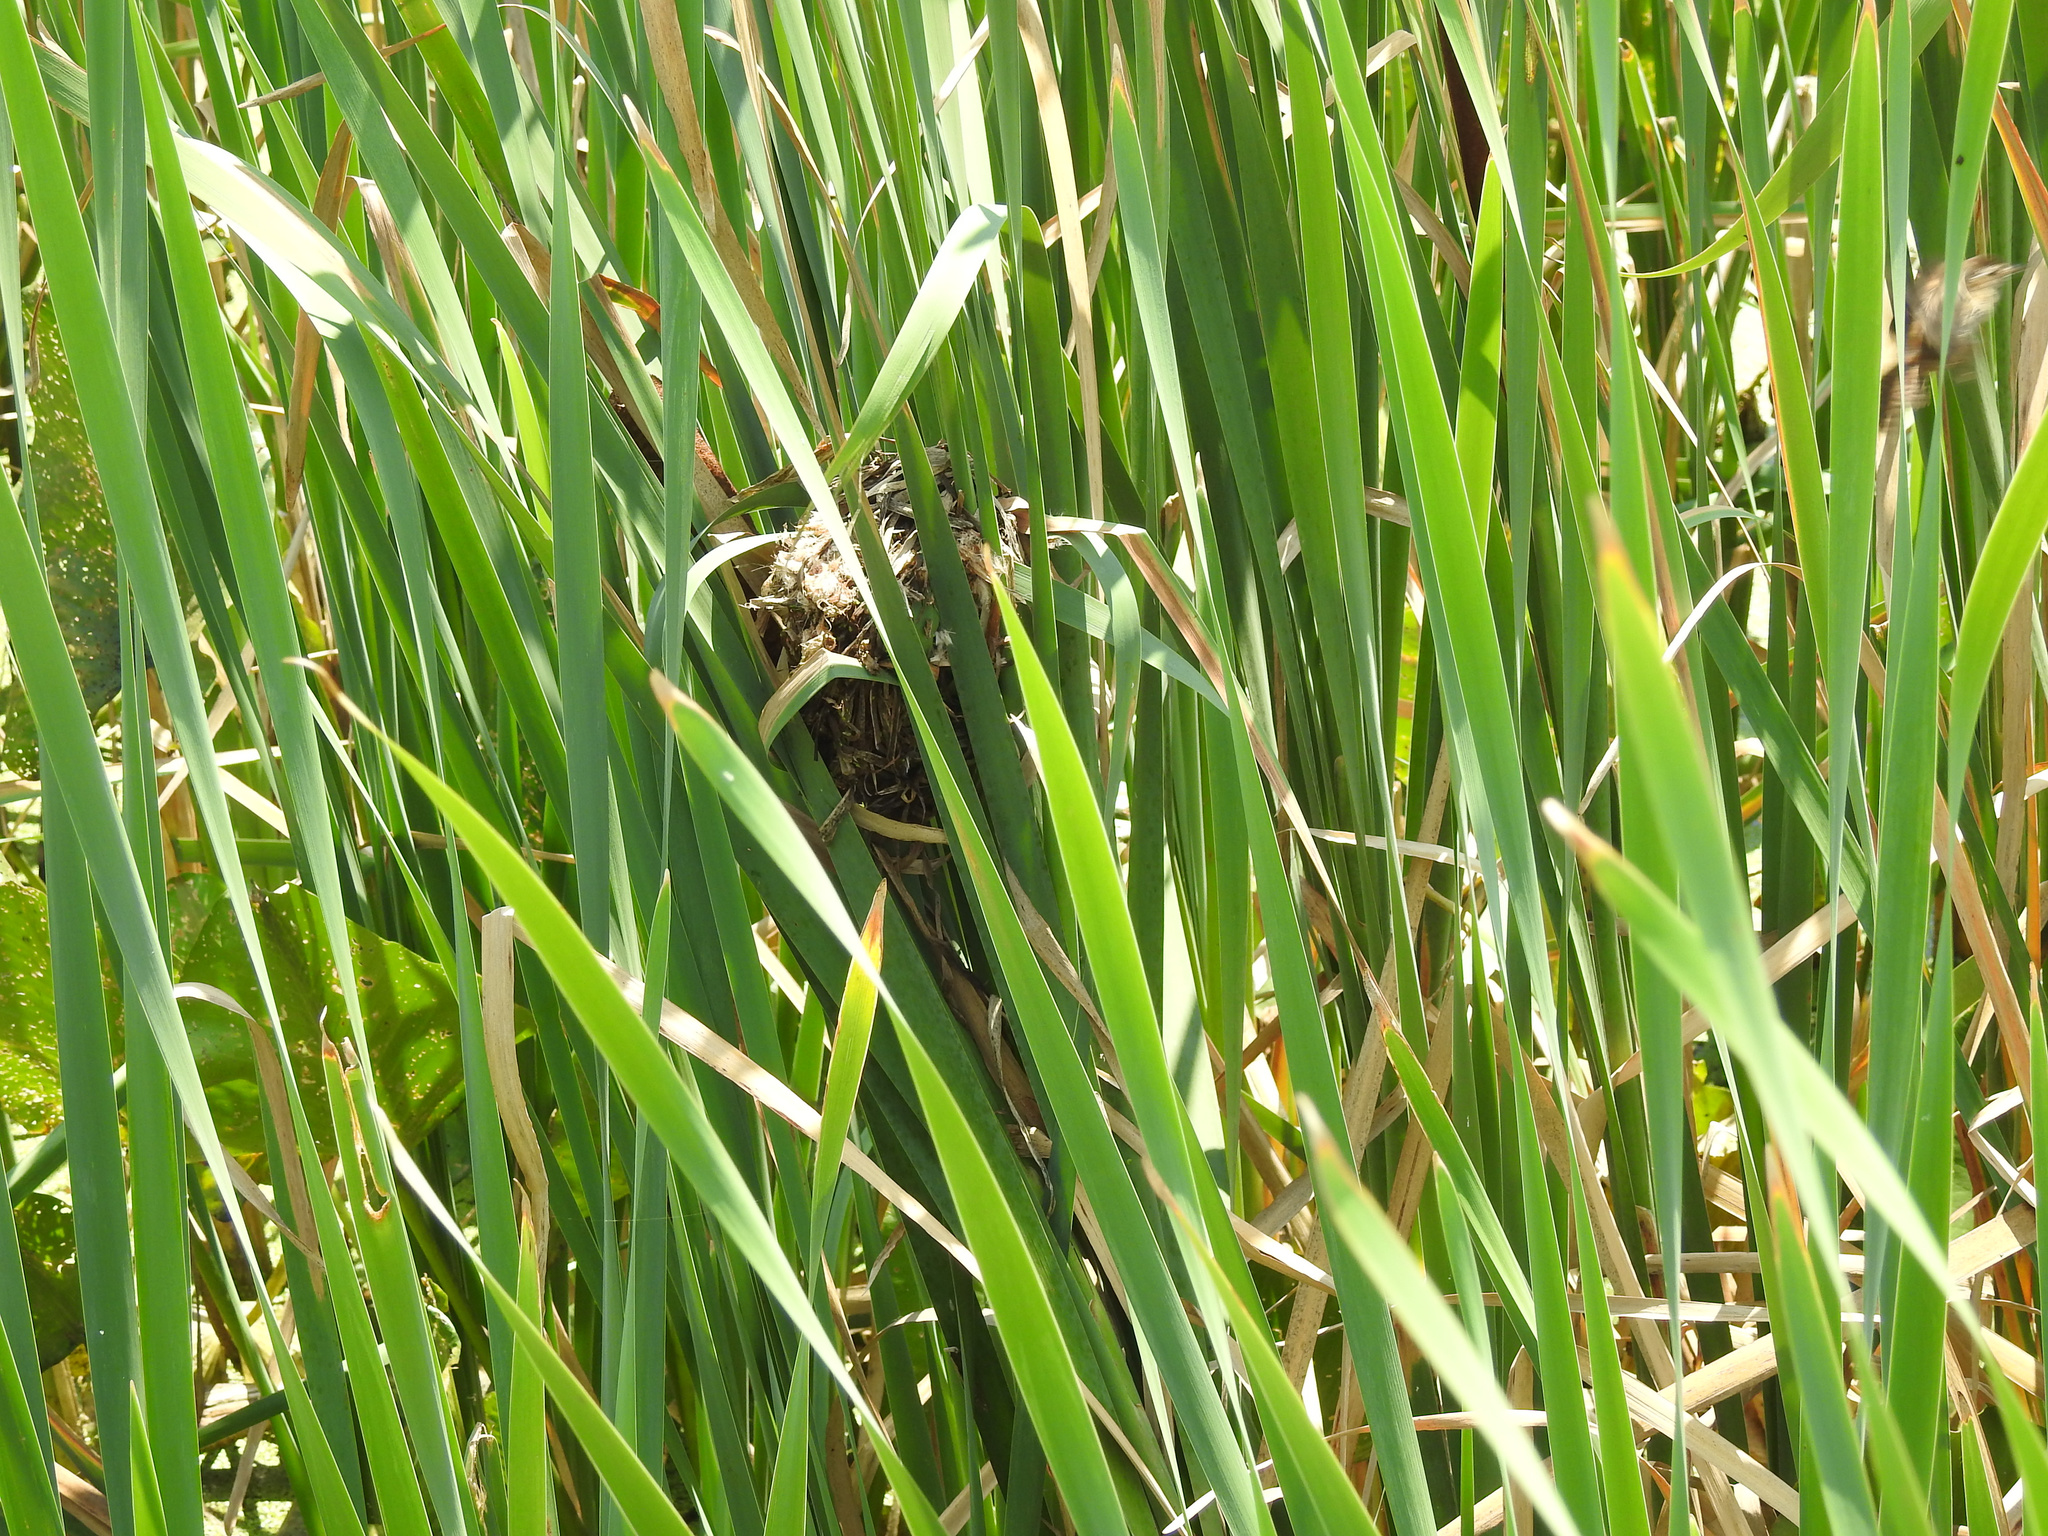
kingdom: Animalia
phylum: Chordata
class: Aves
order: Passeriformes
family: Troglodytidae
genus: Cistothorus
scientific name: Cistothorus palustris
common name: Marsh wren
